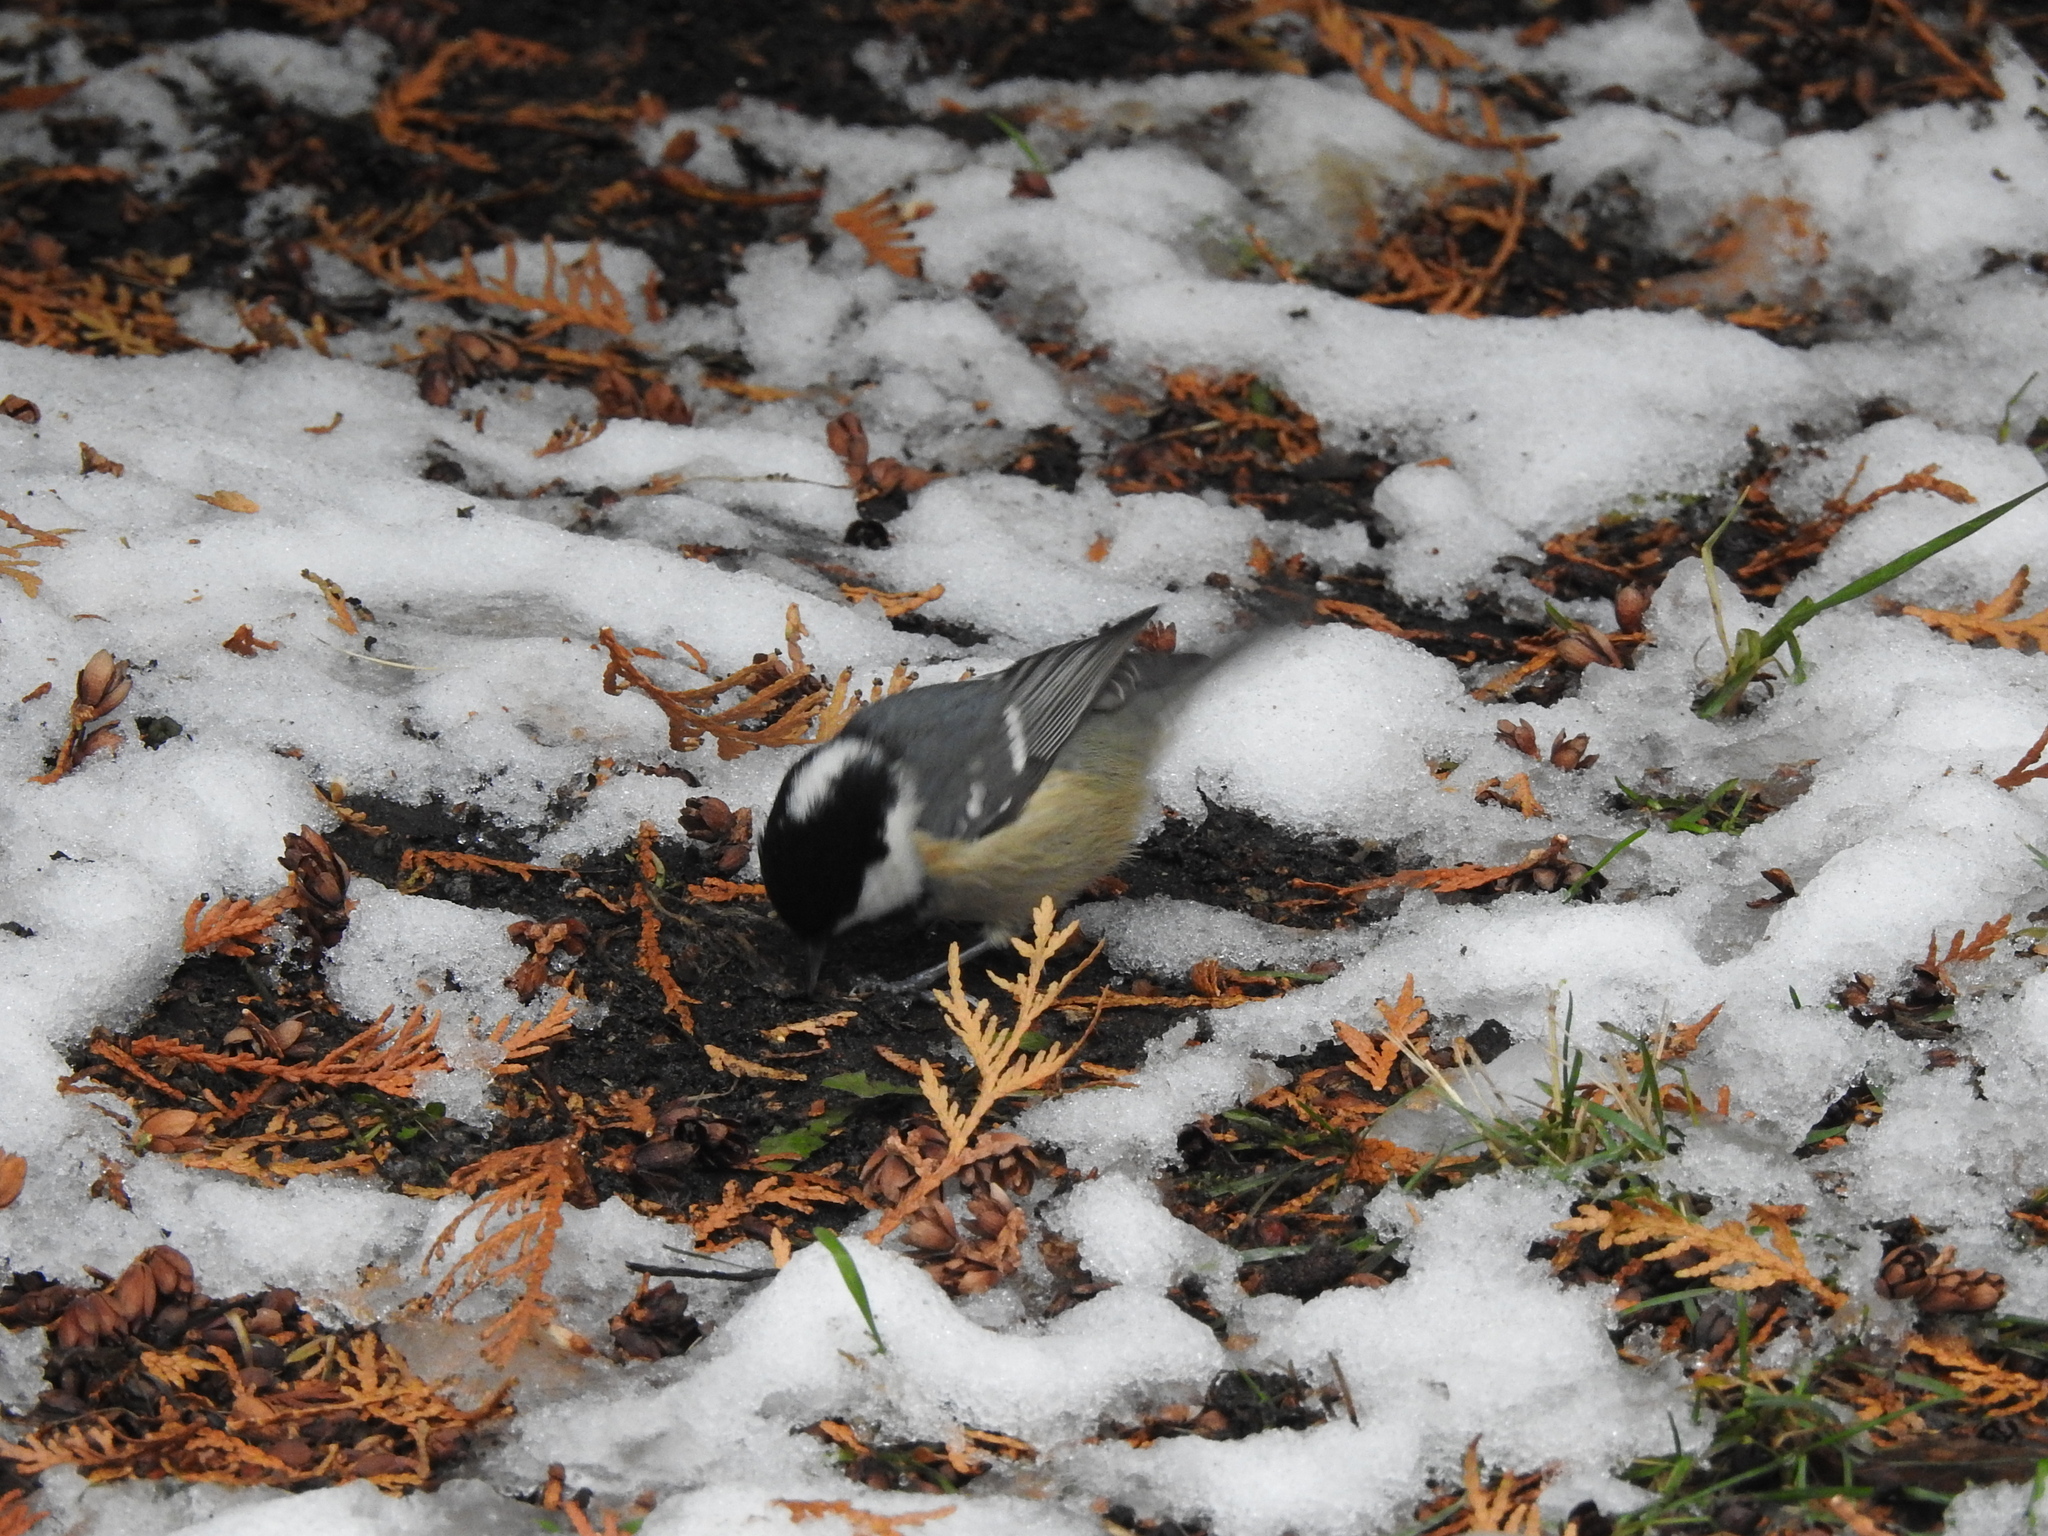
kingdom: Animalia
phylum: Chordata
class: Aves
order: Passeriformes
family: Paridae
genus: Periparus
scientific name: Periparus ater
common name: Coal tit
